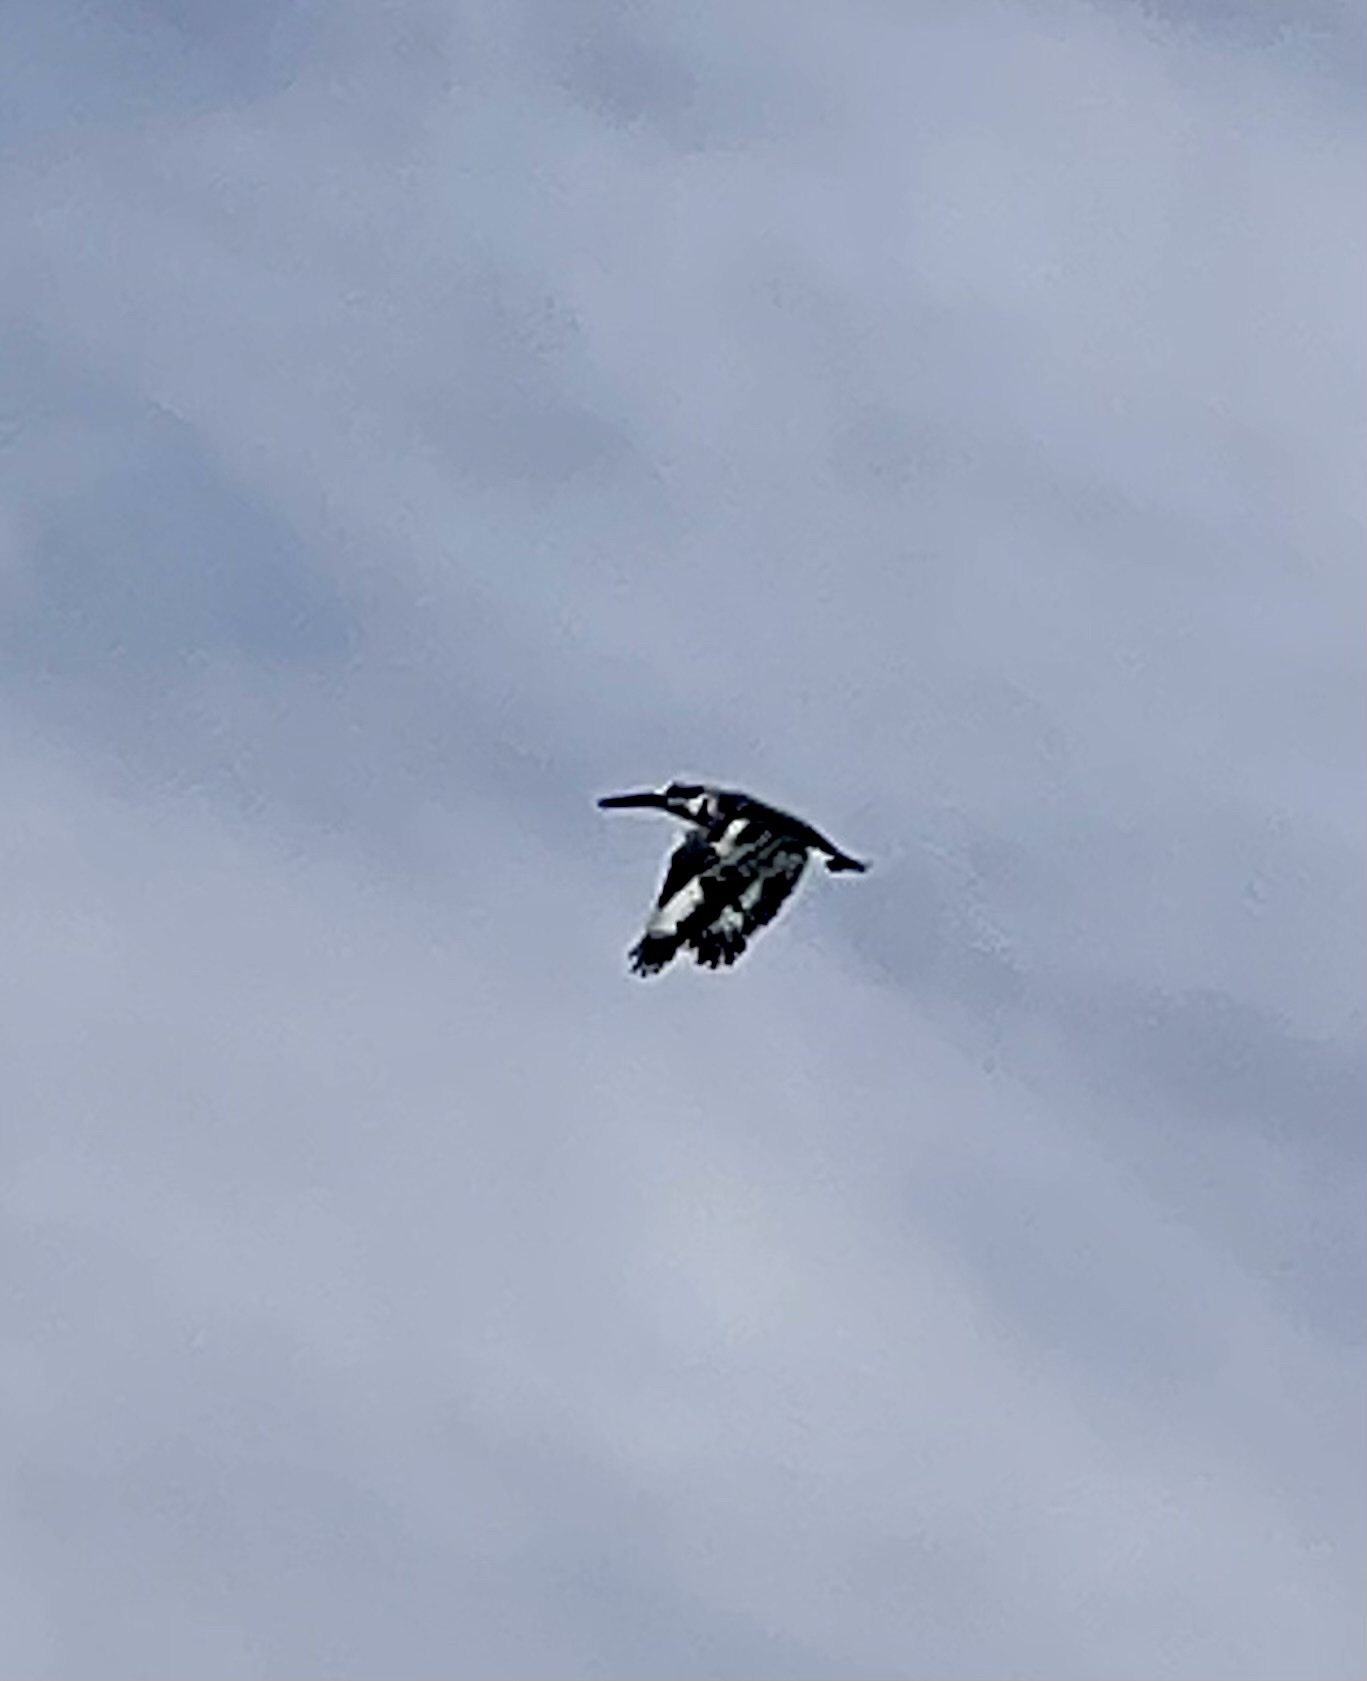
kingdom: Animalia
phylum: Chordata
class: Aves
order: Coraciiformes
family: Alcedinidae
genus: Ceryle
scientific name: Ceryle rudis
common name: Pied kingfisher
